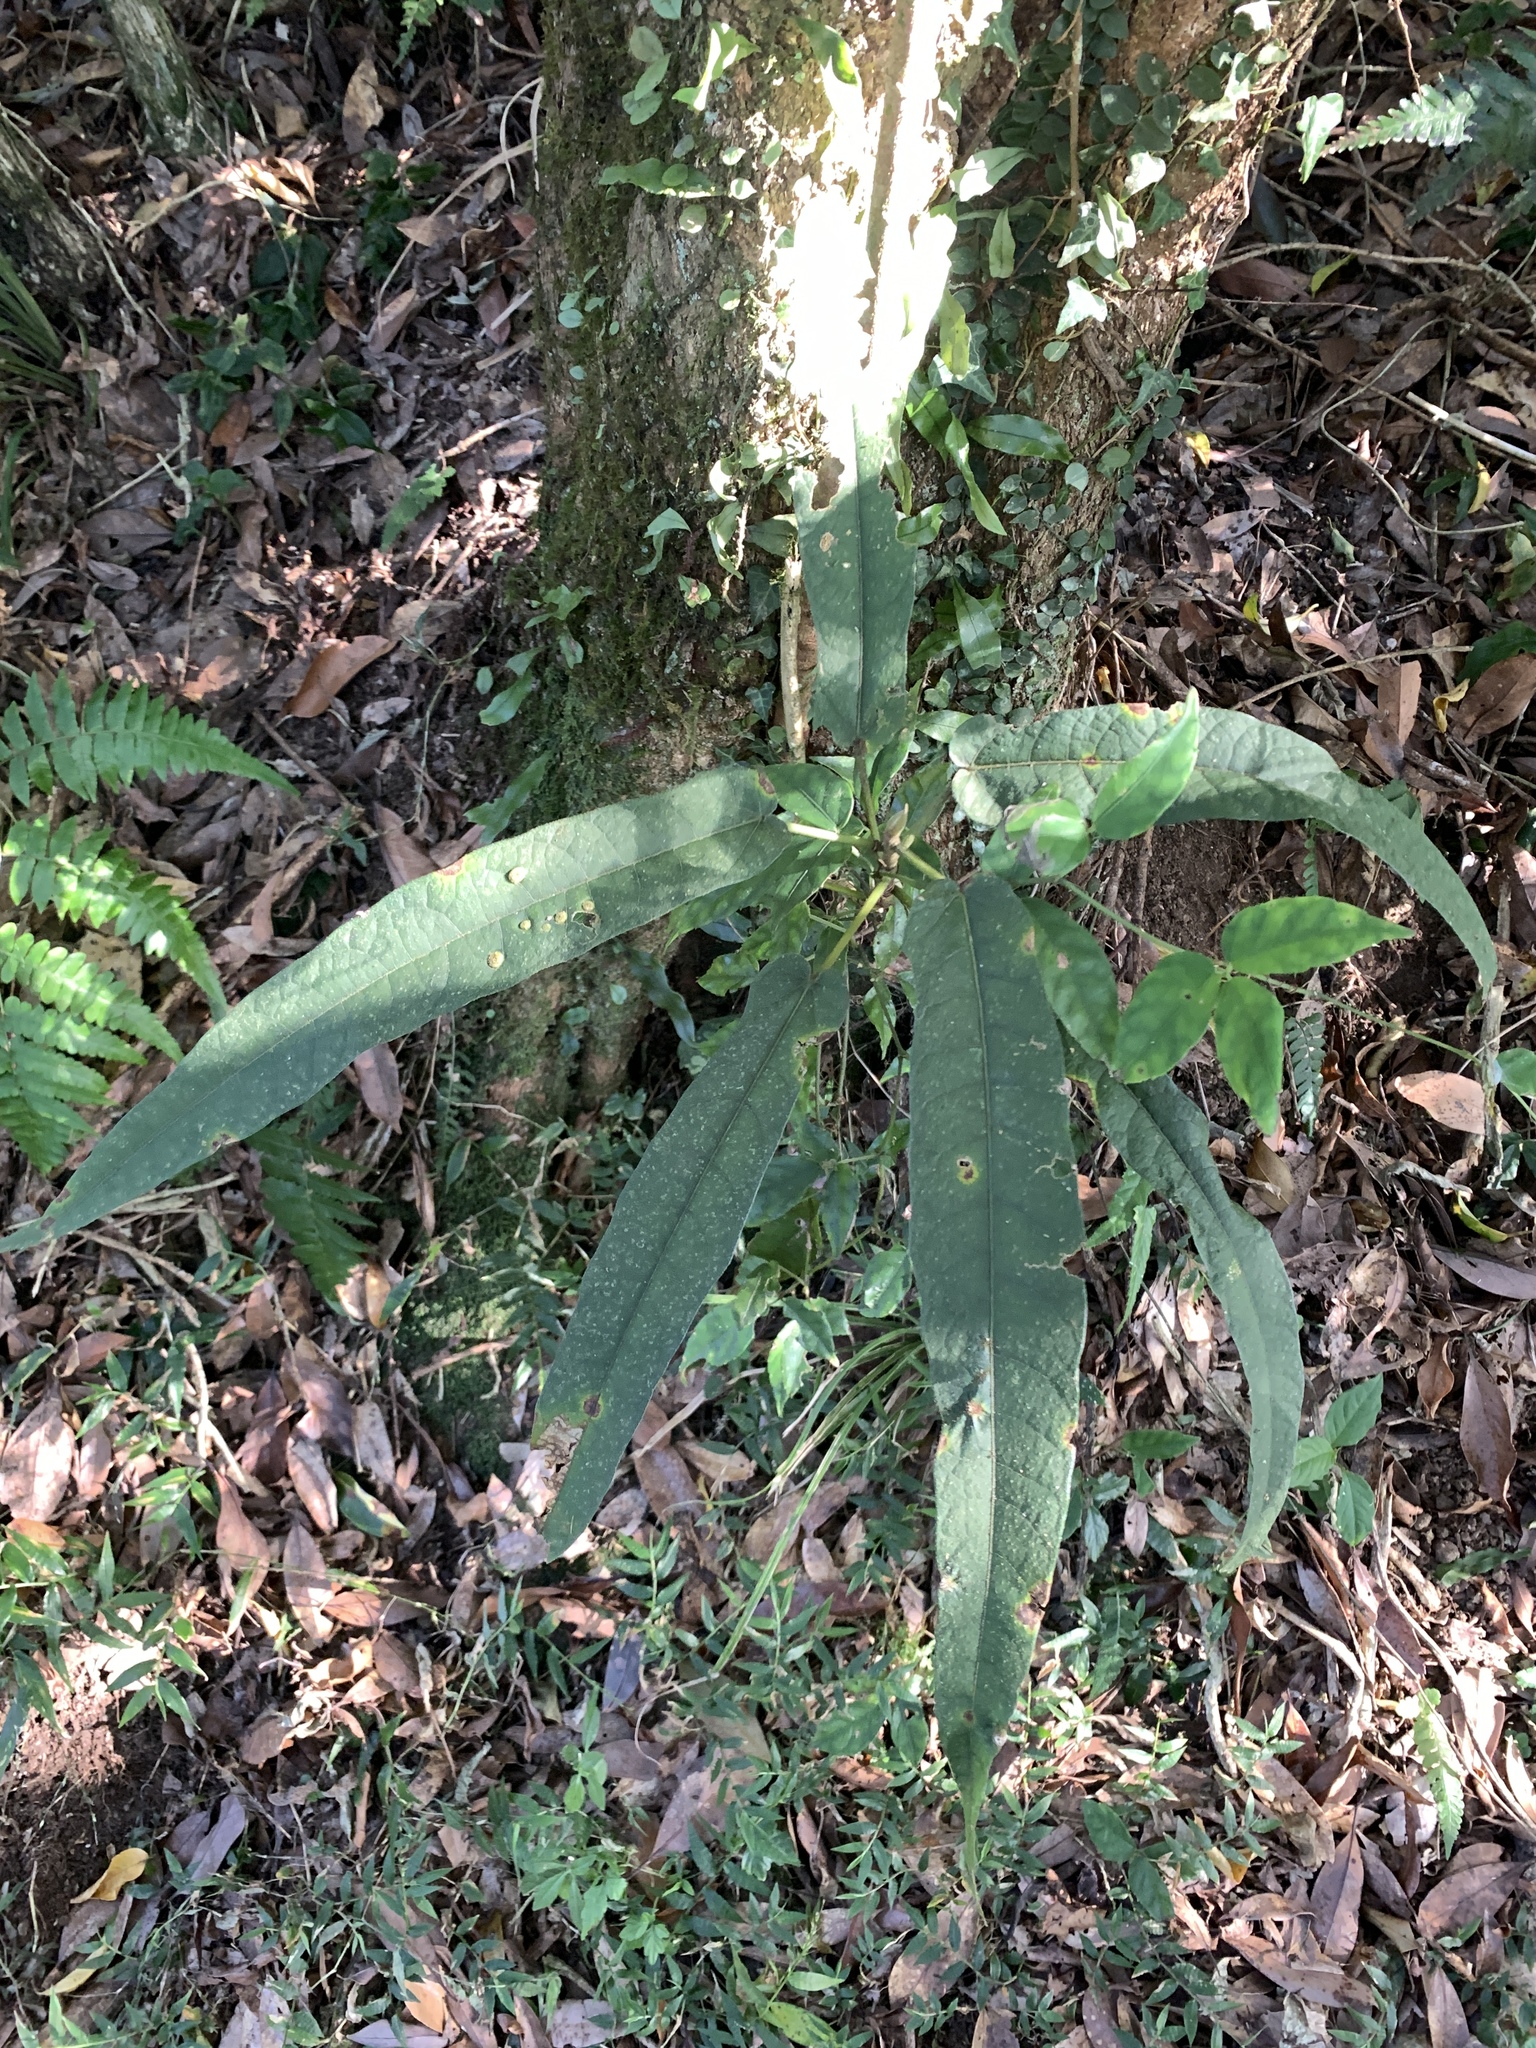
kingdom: Plantae
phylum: Tracheophyta
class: Magnoliopsida
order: Rosales
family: Moraceae
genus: Ficus
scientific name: Ficus erecta
